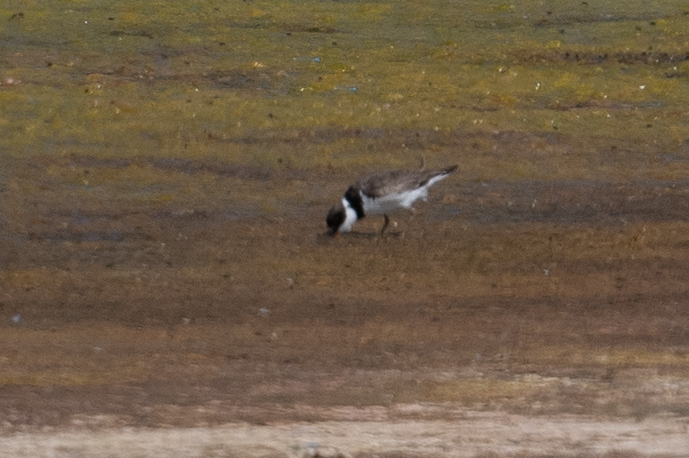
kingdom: Animalia
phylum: Chordata
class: Aves
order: Charadriiformes
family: Charadriidae
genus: Charadrius
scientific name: Charadrius semipalmatus
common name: Semipalmated plover
